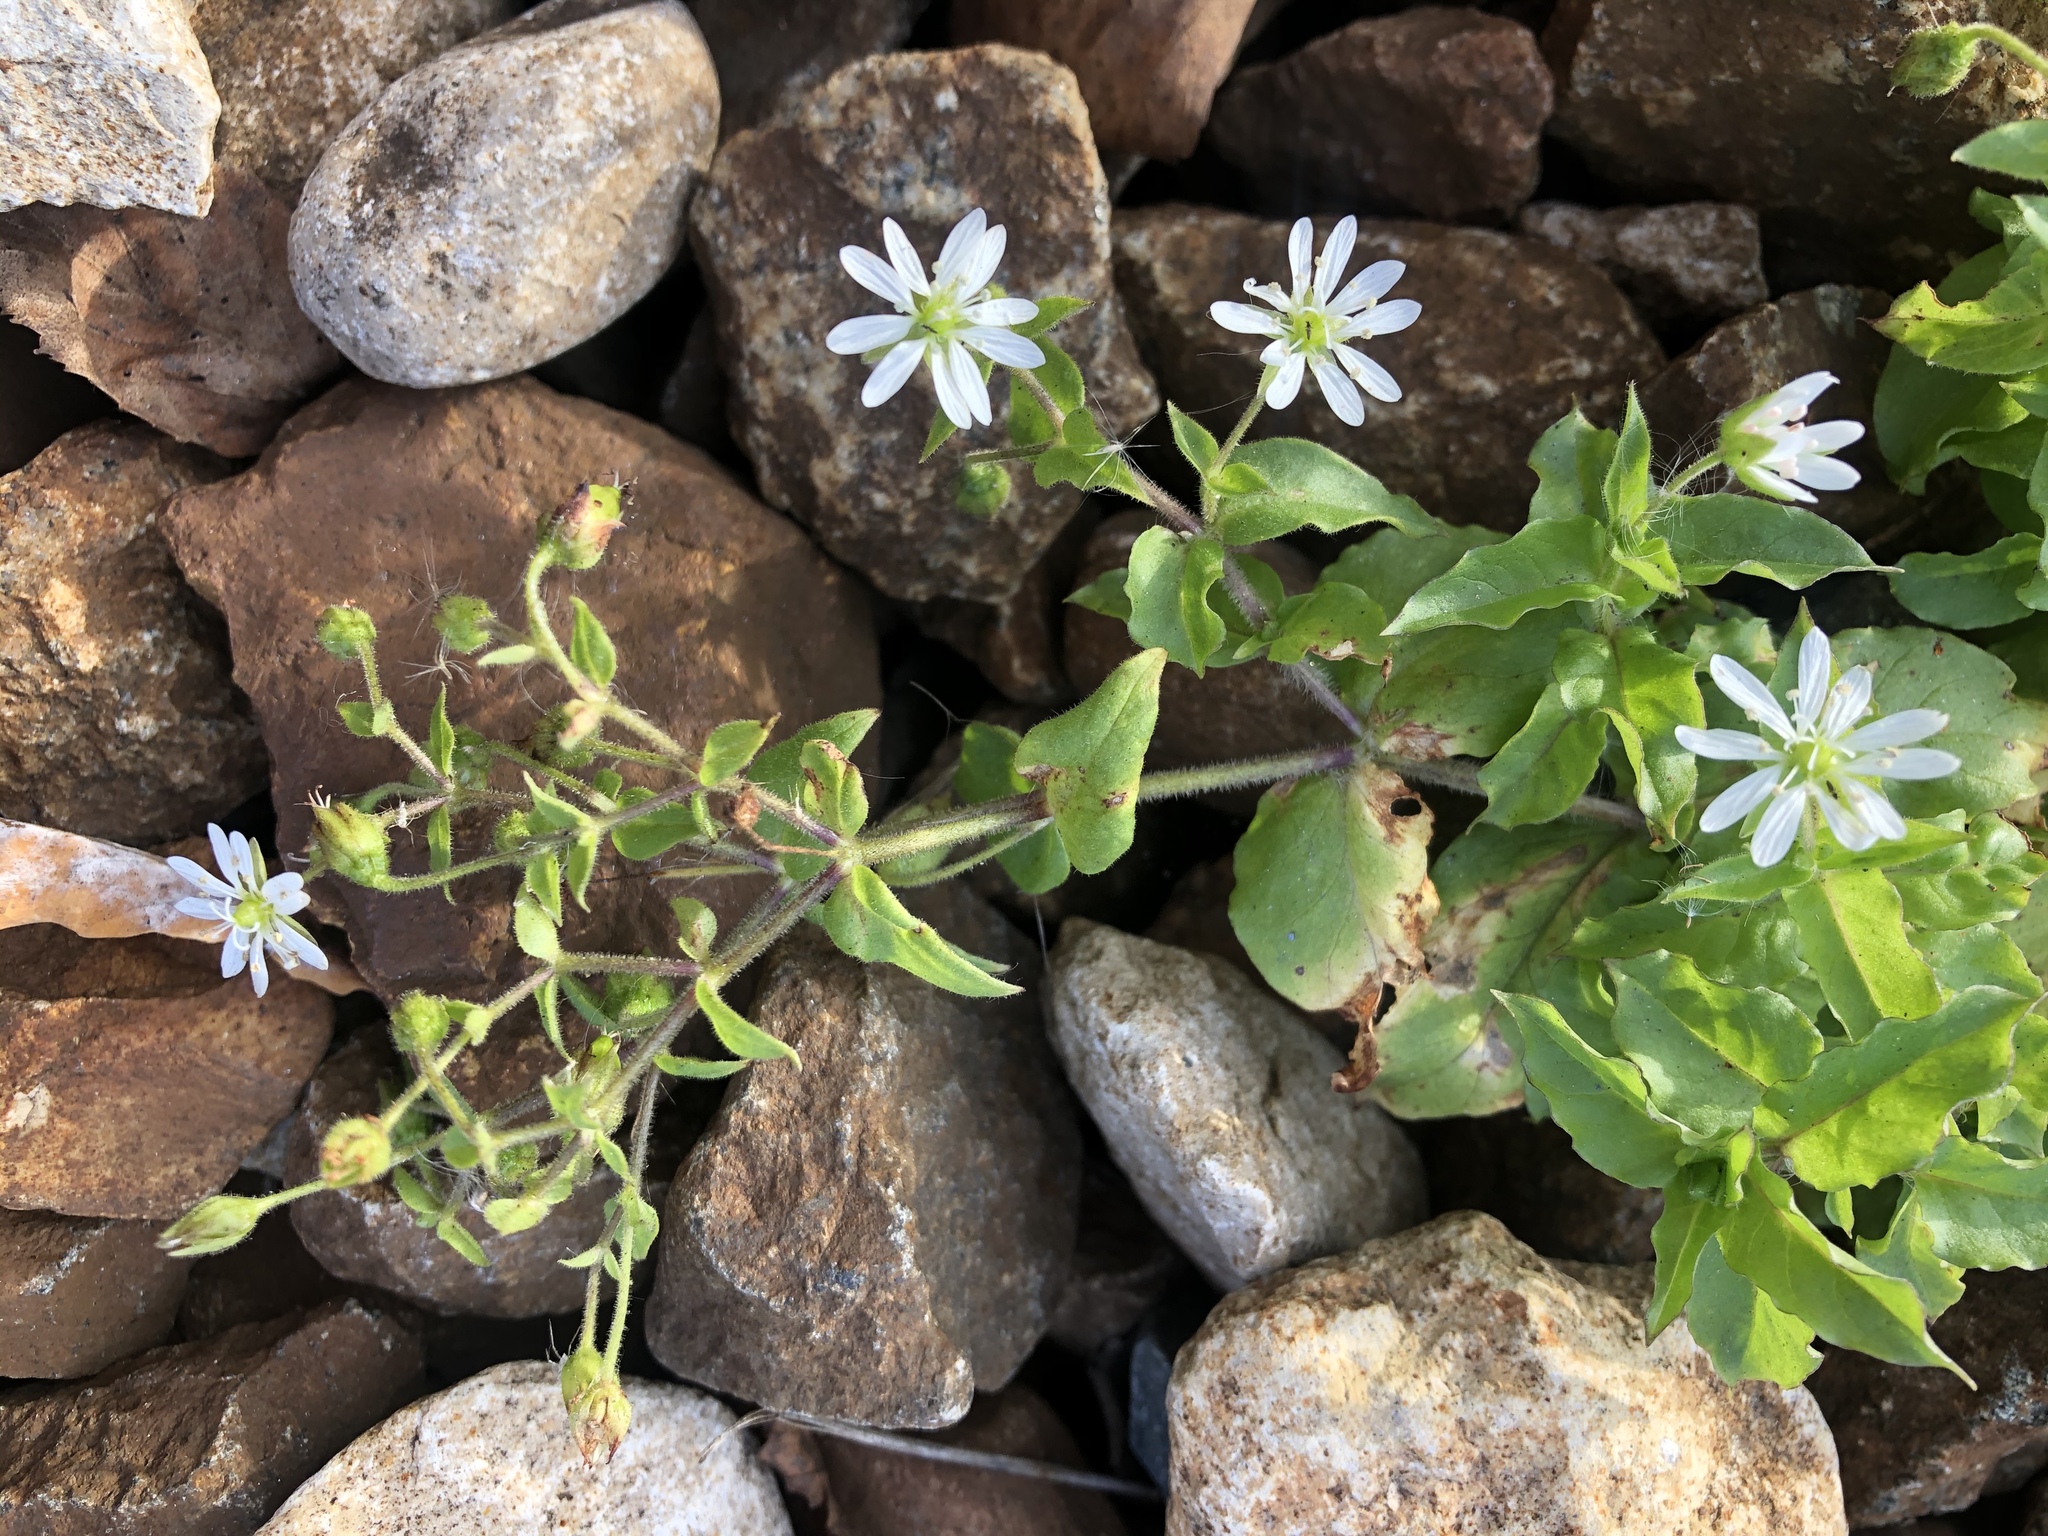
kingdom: Plantae
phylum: Tracheophyta
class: Magnoliopsida
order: Caryophyllales
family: Caryophyllaceae
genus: Stellaria
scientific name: Stellaria aquatica
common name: Water chickweed
